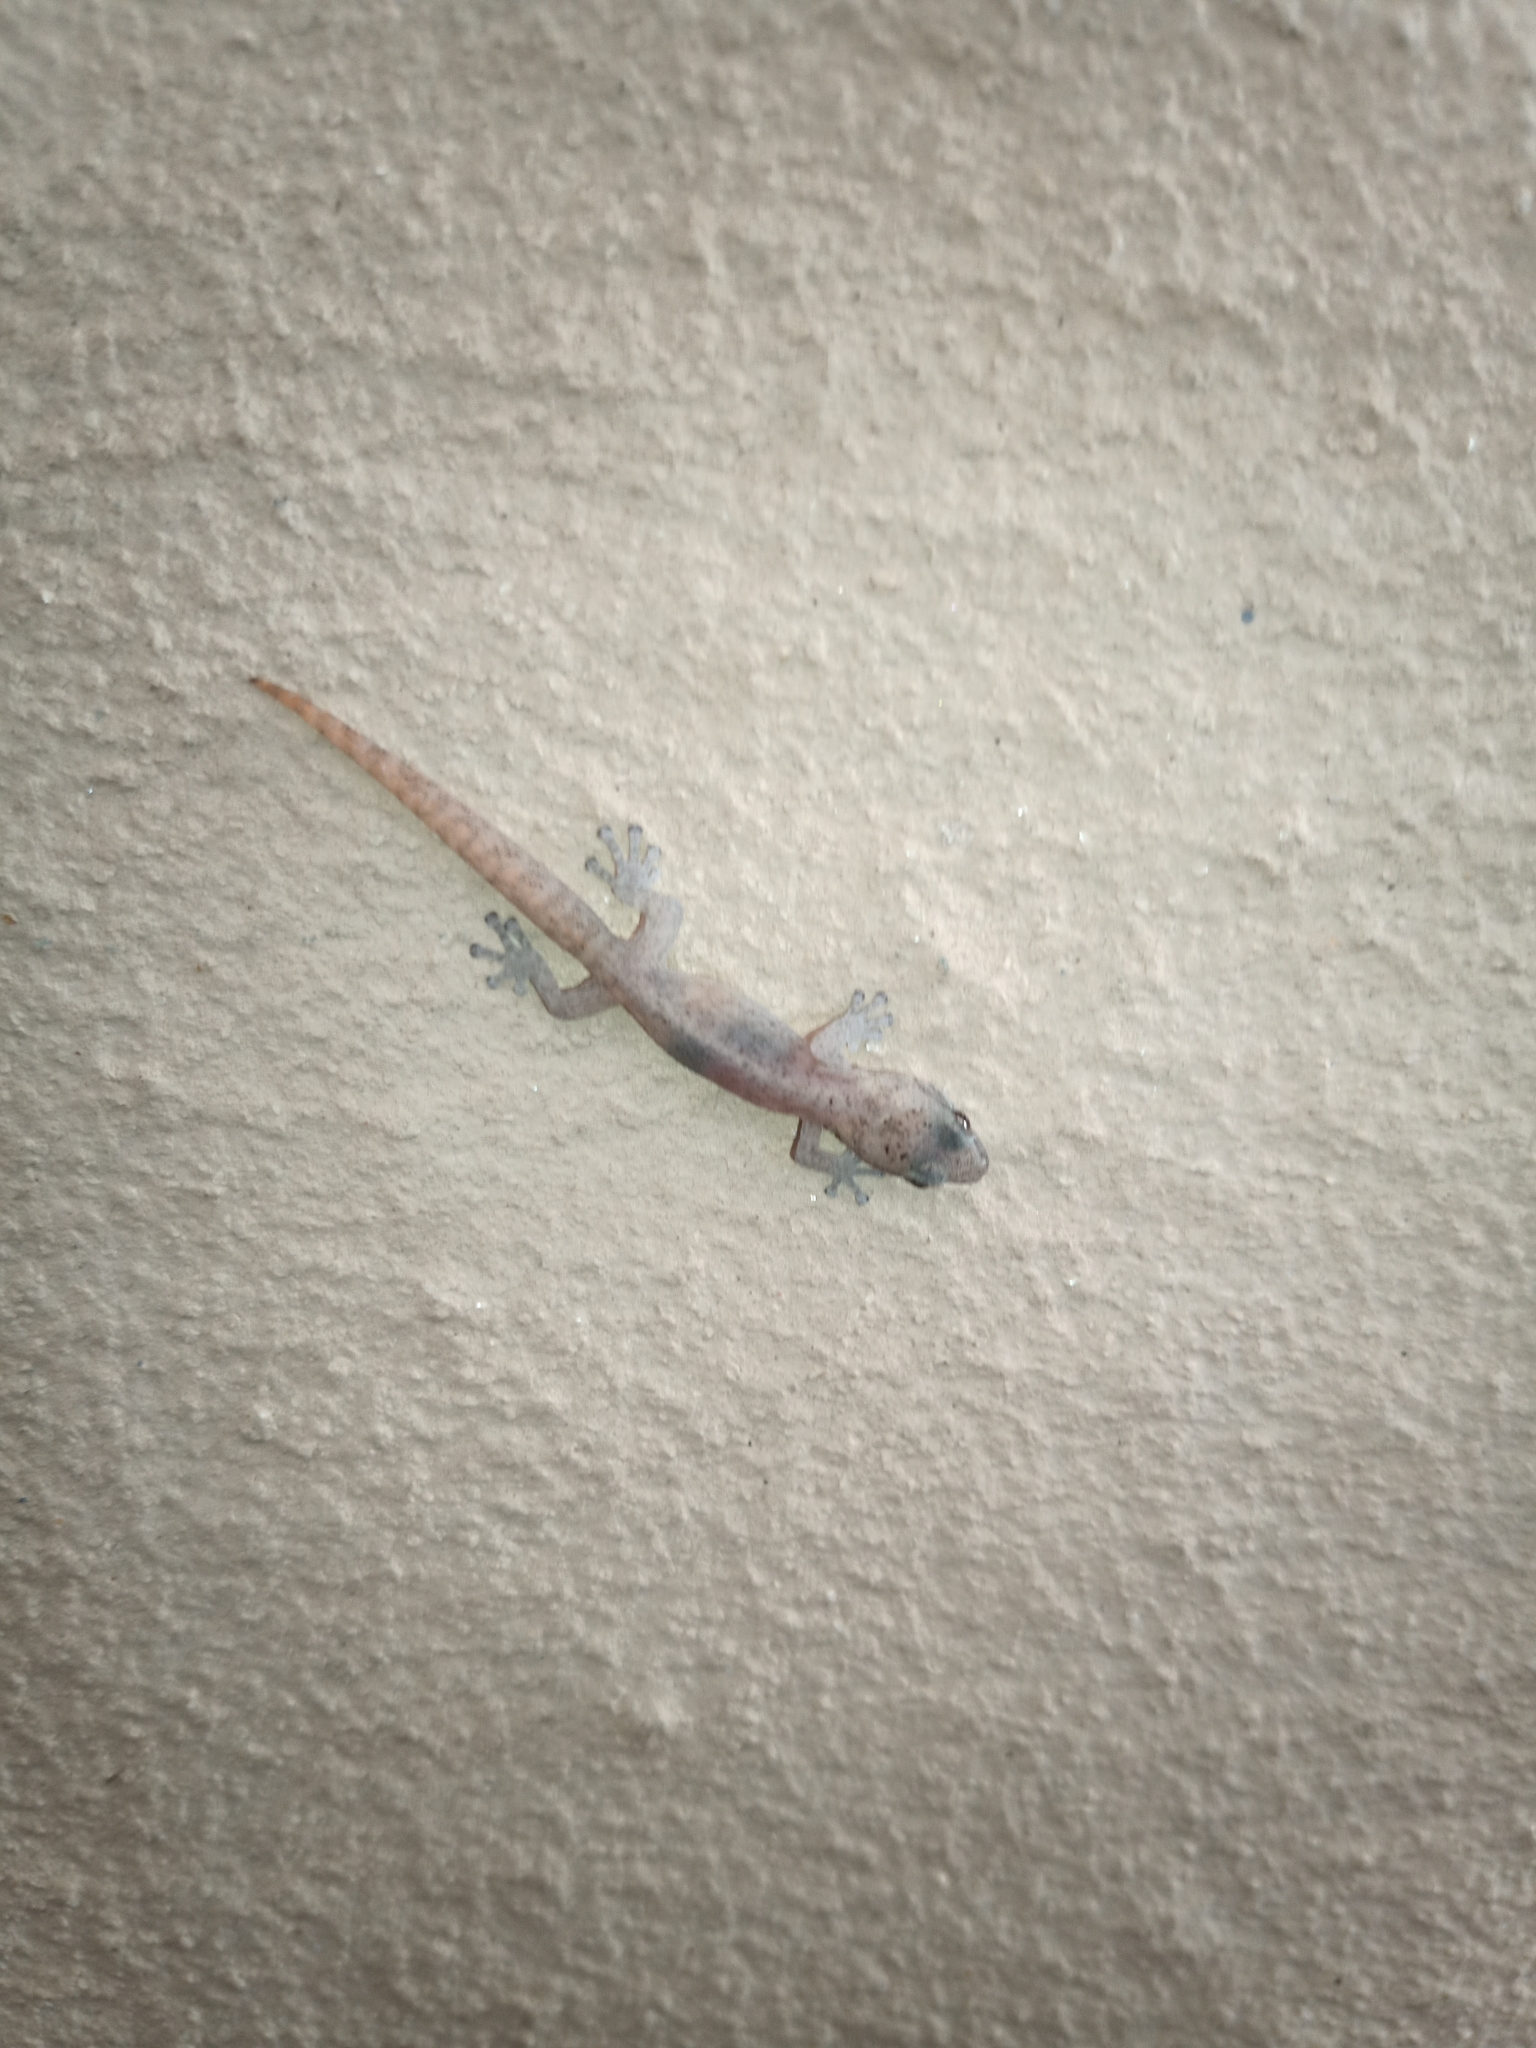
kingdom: Animalia
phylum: Chordata
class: Squamata
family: Gekkonidae
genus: Afrogecko
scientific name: Afrogecko porphyreus
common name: Marbled leaf-toed gecko
